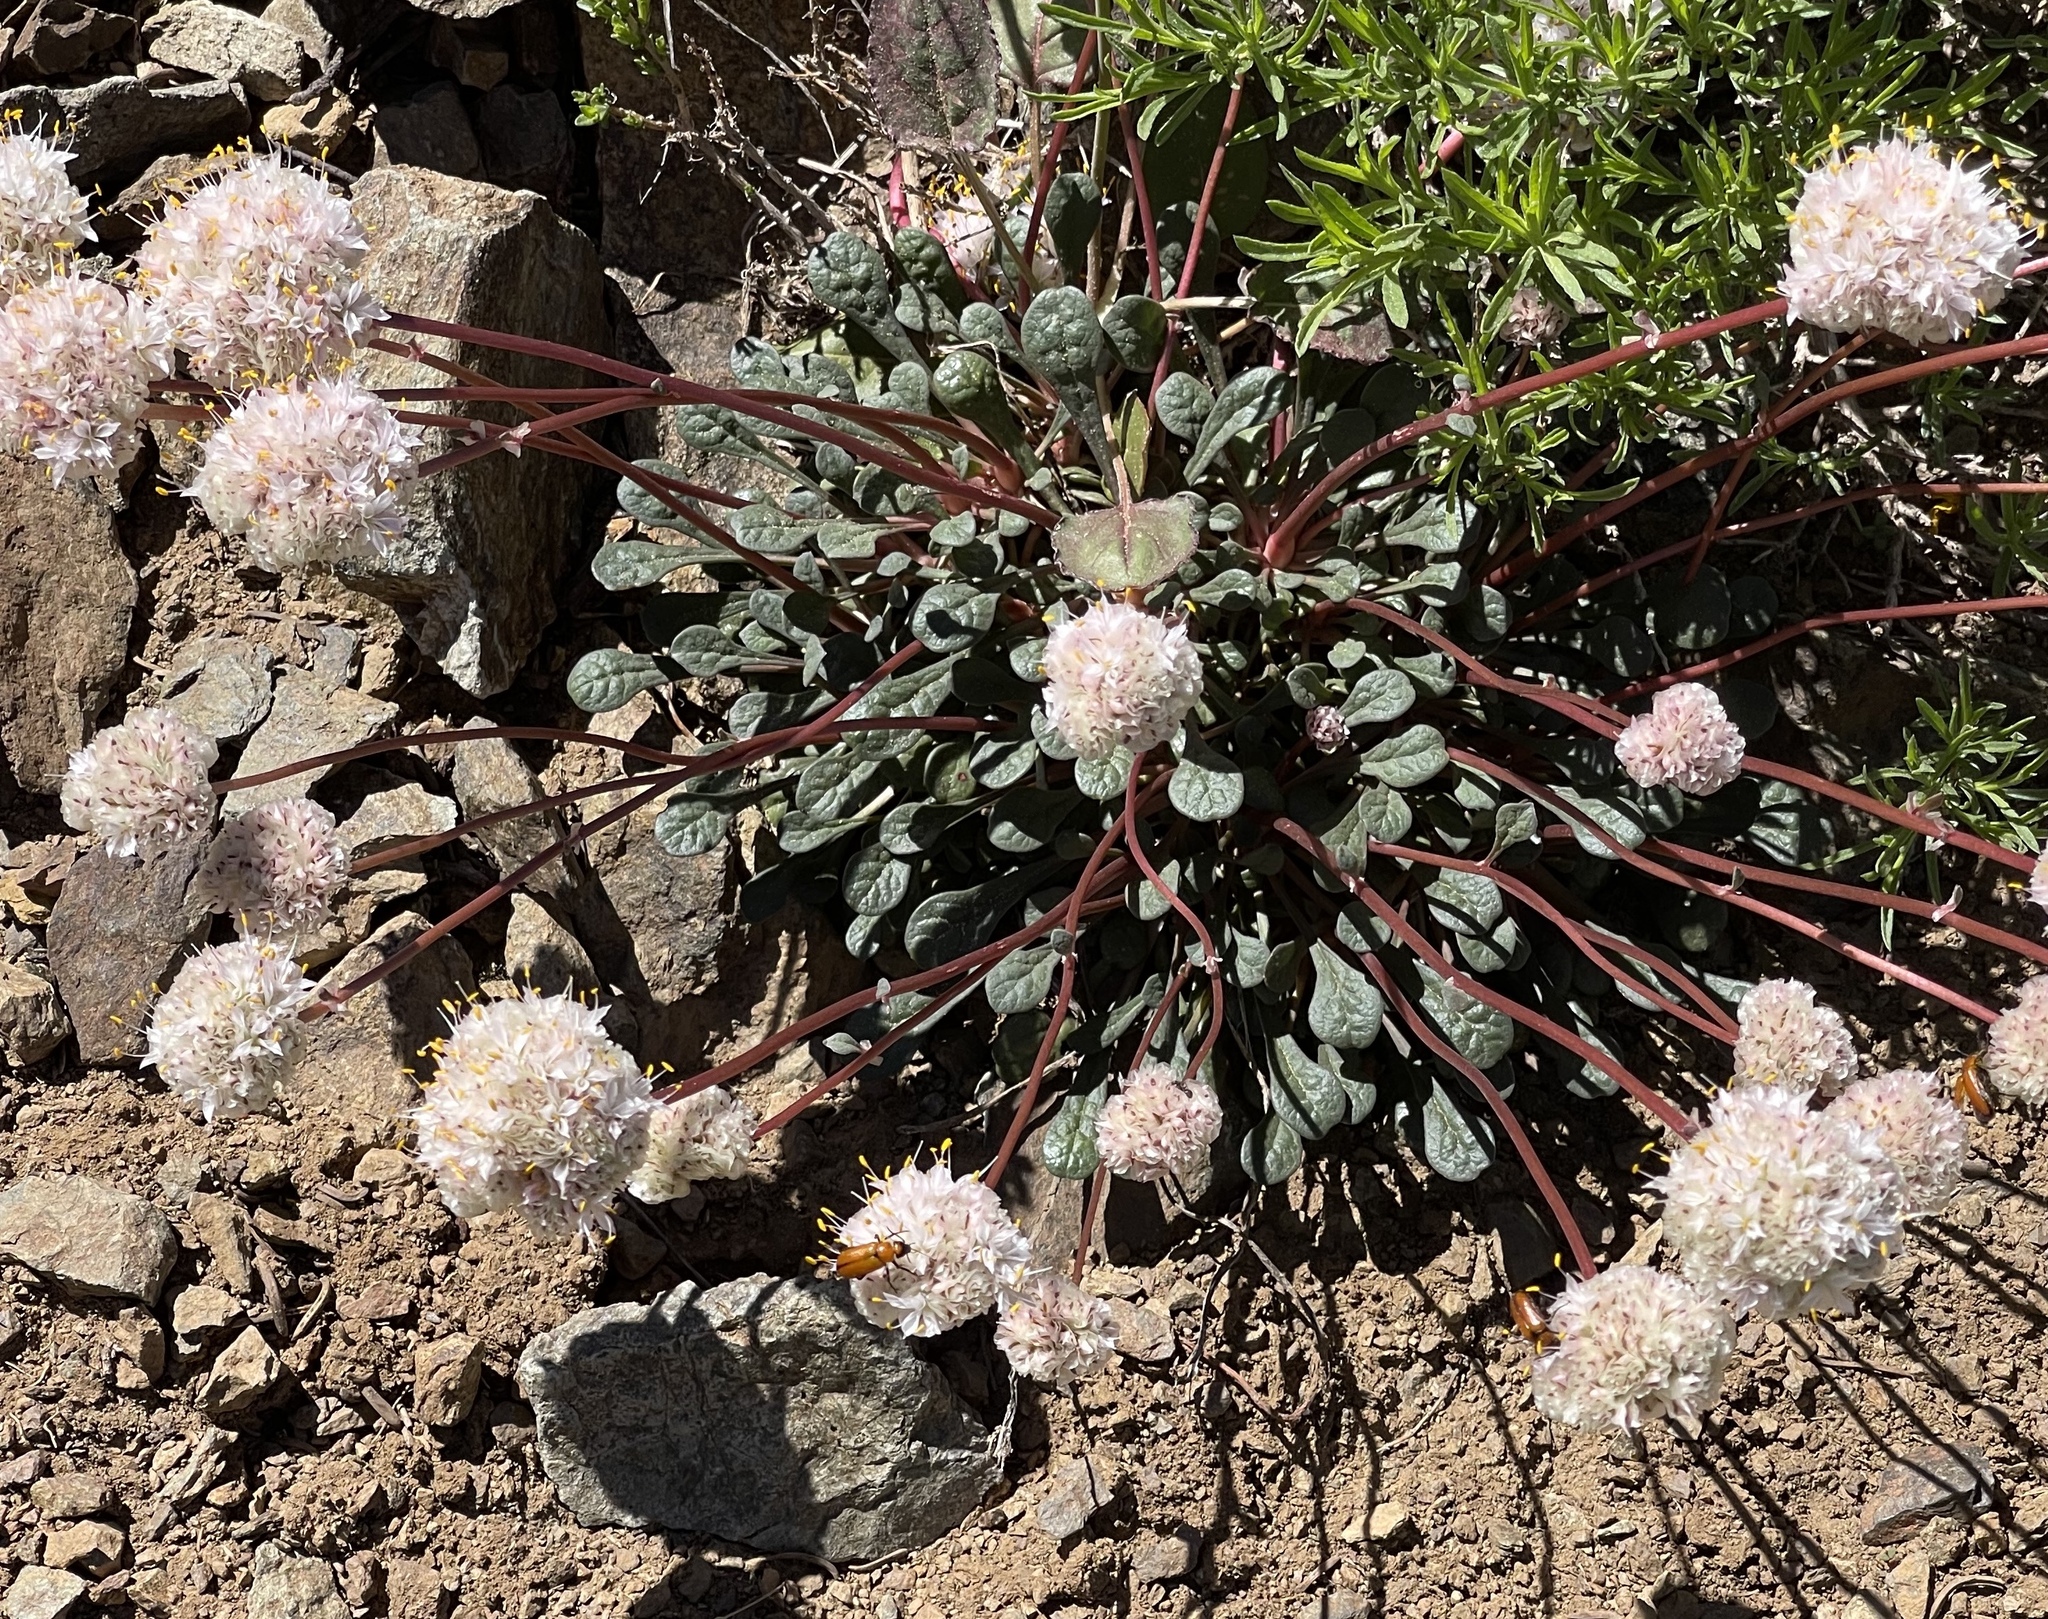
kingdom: Plantae
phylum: Tracheophyta
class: Magnoliopsida
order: Caryophyllales
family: Montiaceae
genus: Calyptridium
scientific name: Calyptridium monospermum
